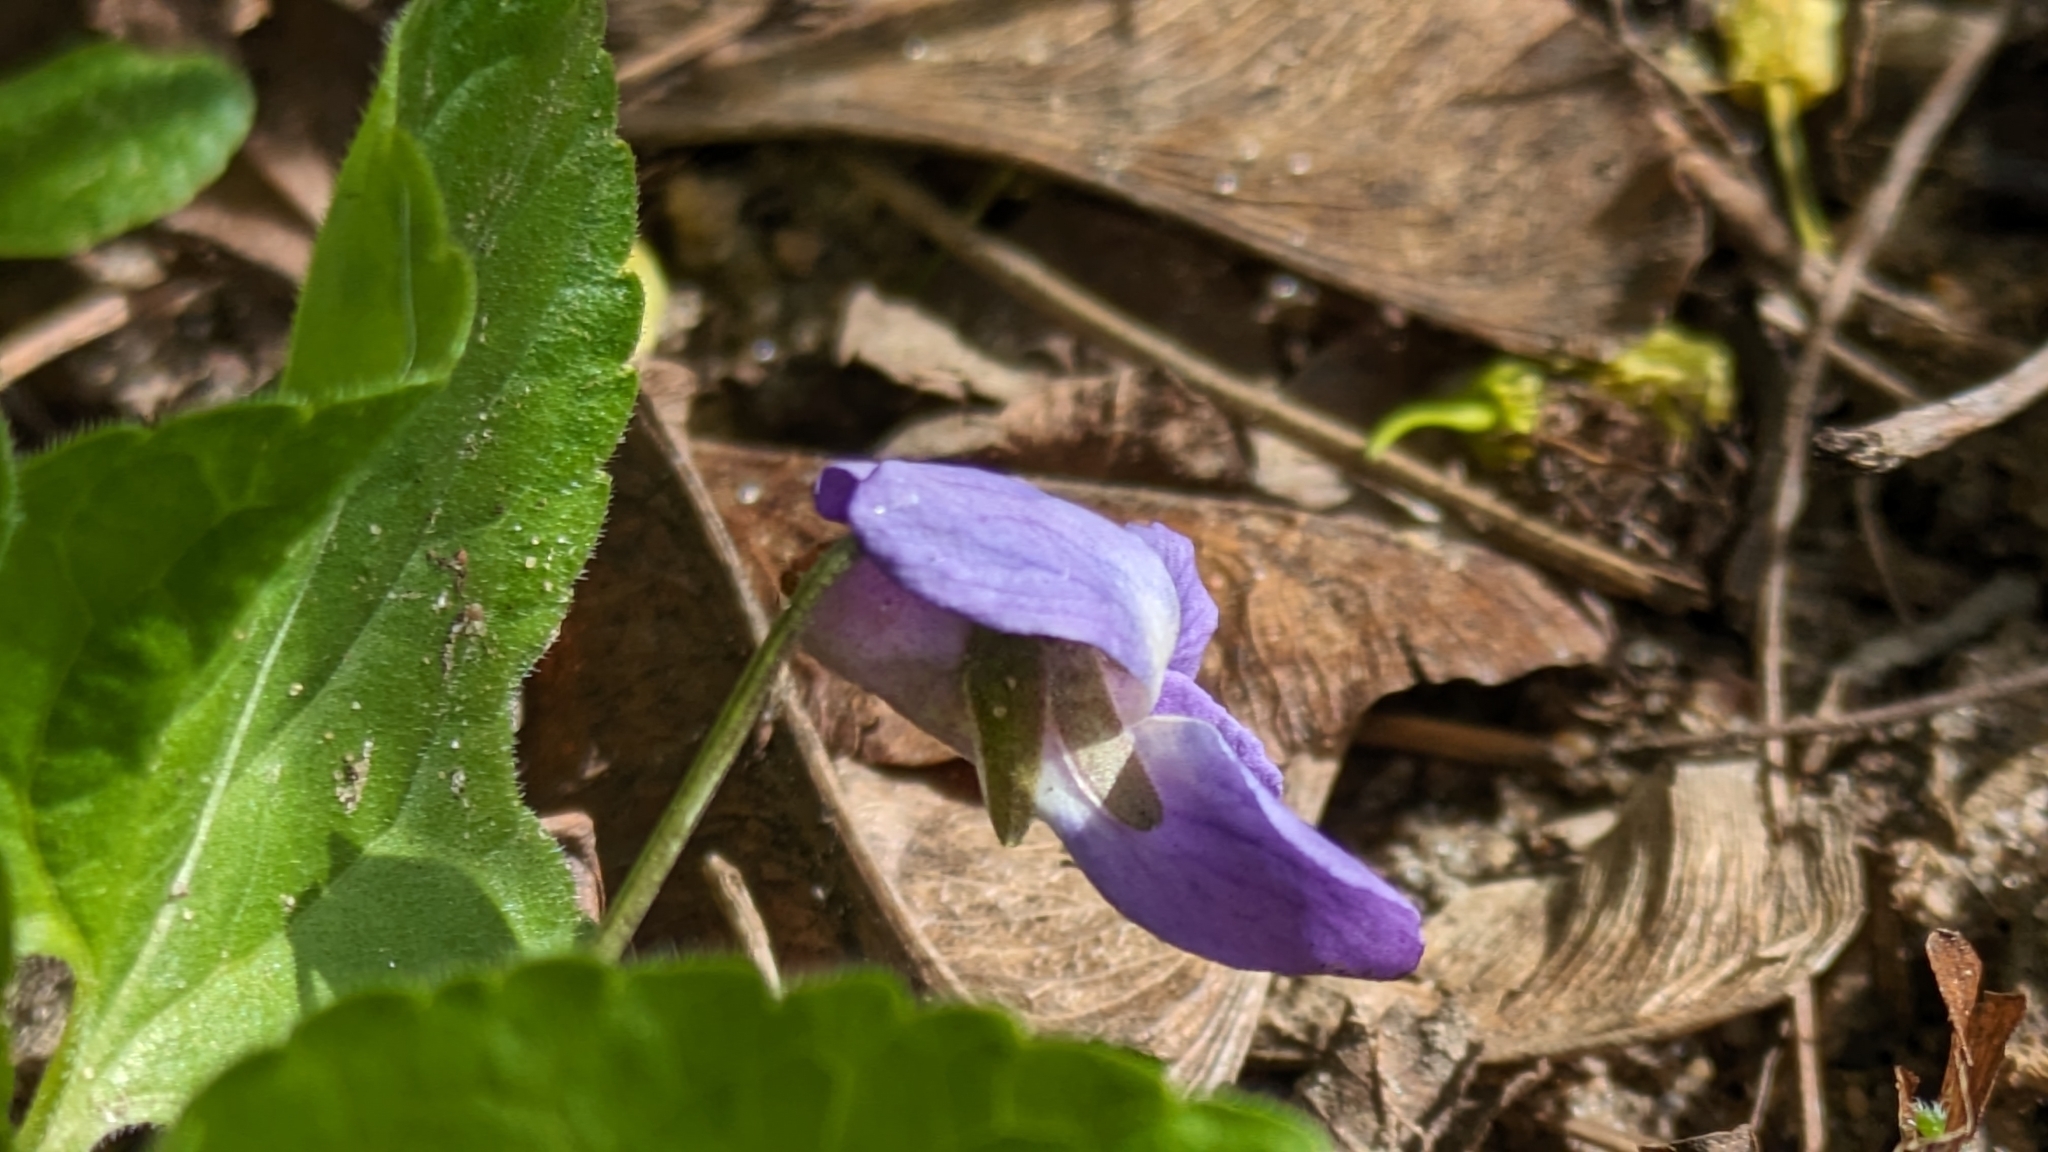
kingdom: Plantae
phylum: Tracheophyta
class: Magnoliopsida
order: Malpighiales
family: Violaceae
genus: Viola
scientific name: Viola odorata
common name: Sweet violet
